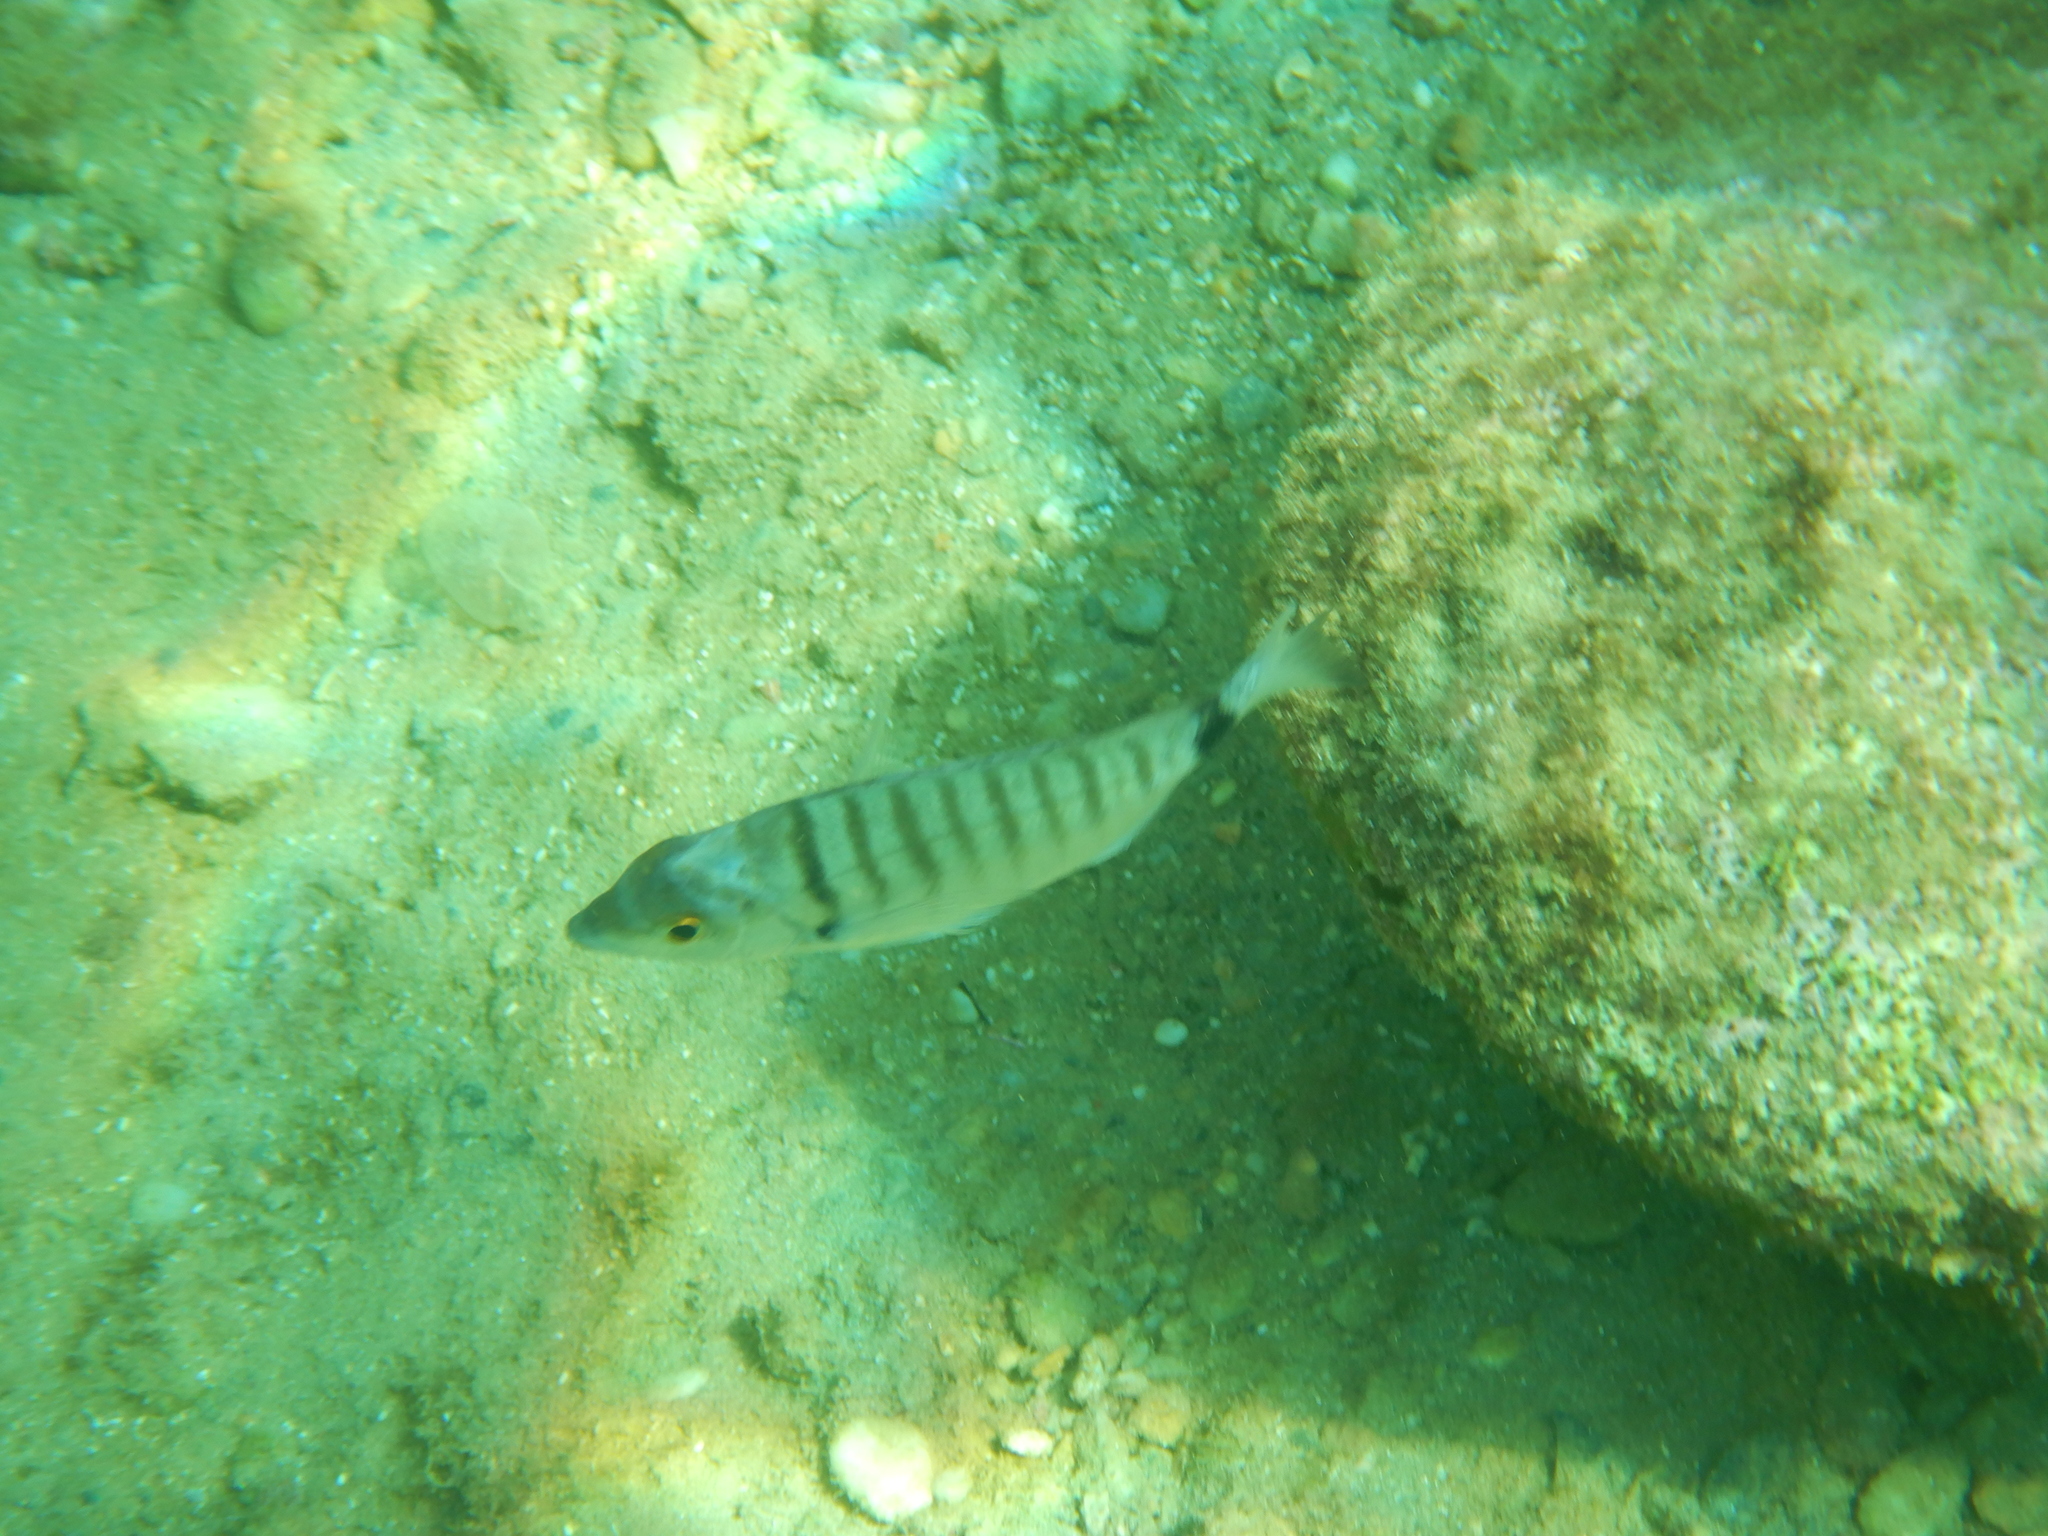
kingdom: Animalia
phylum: Chordata
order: Perciformes
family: Sparidae
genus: Diplodus
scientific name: Diplodus puntazzo
